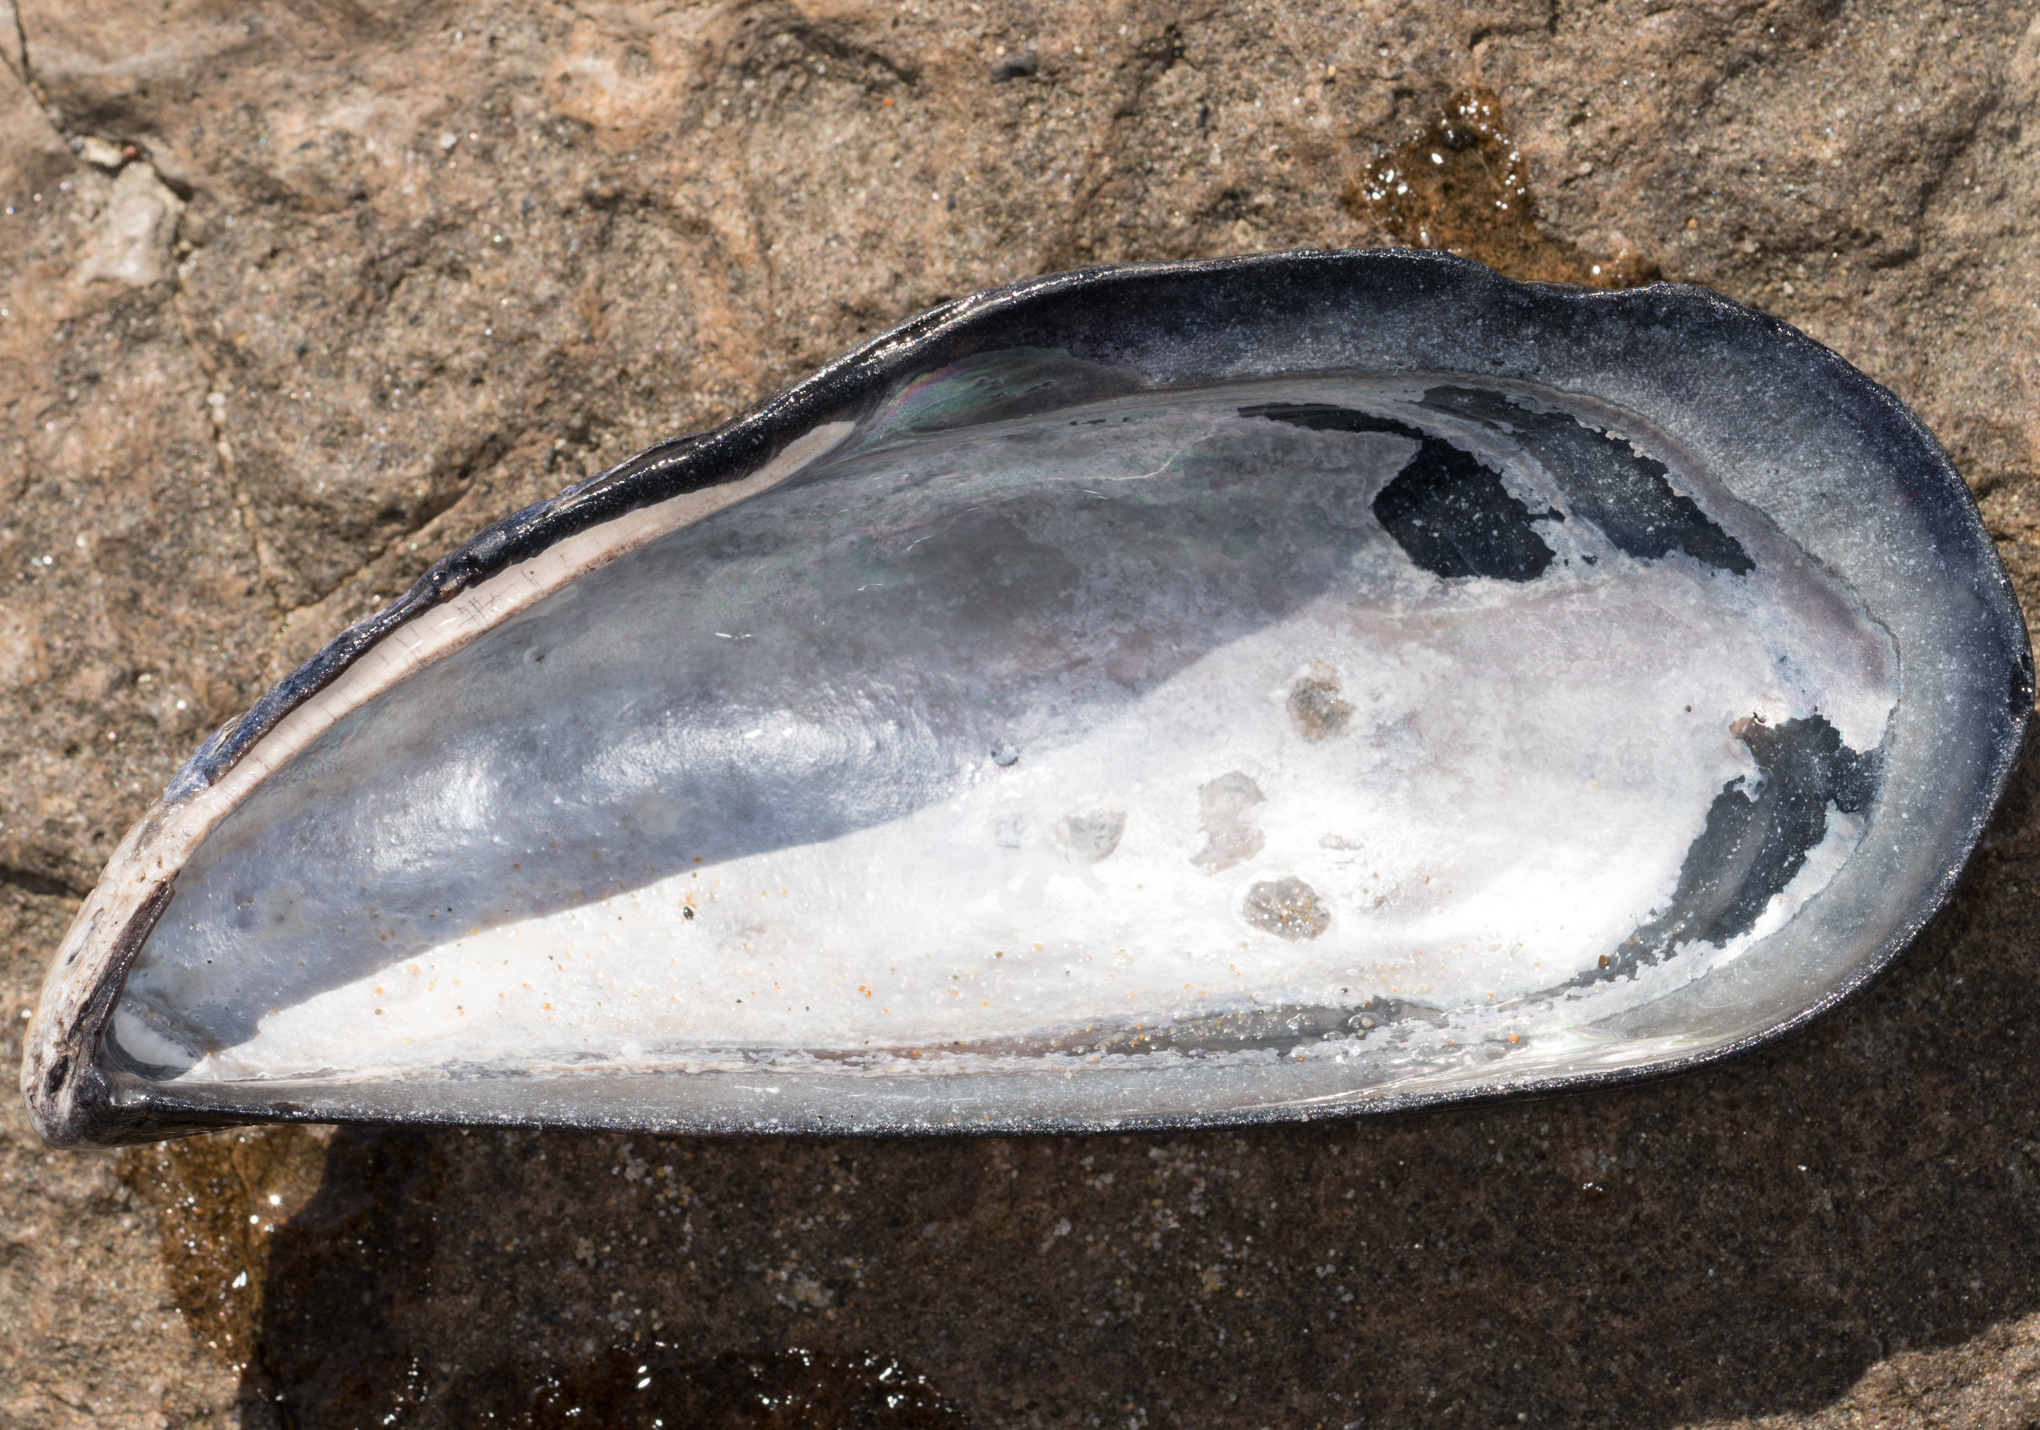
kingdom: Animalia
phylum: Mollusca
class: Bivalvia
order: Mytilida
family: Mytilidae
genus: Mytilus
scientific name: Mytilus californianus
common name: California mussel
